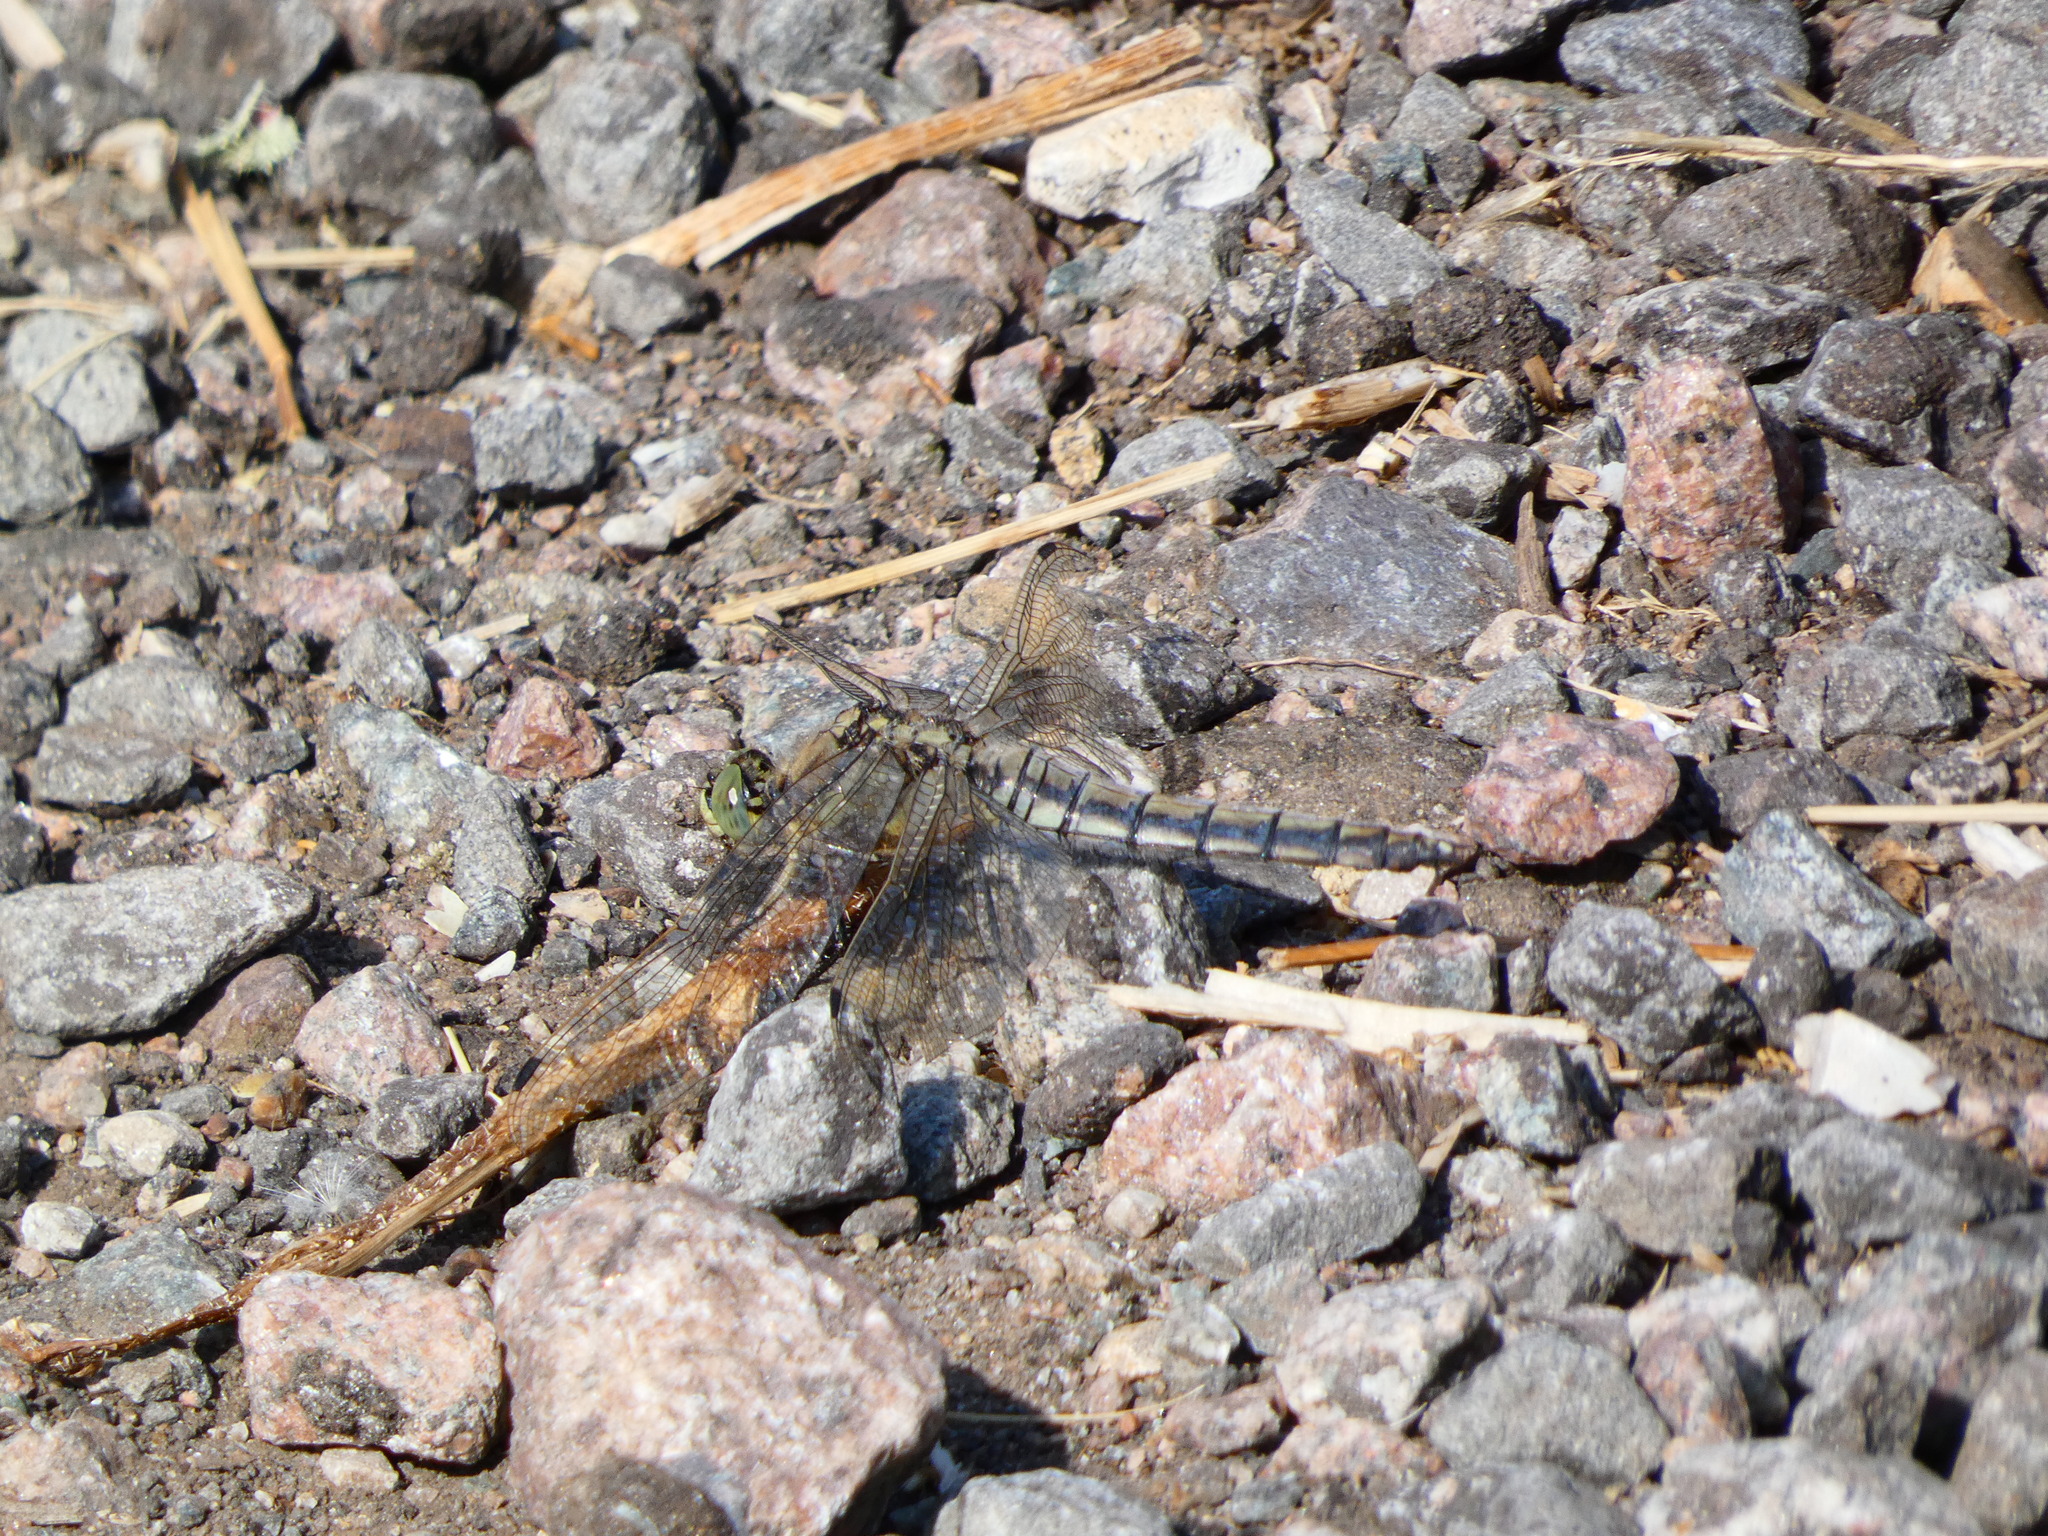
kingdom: Animalia
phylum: Arthropoda
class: Insecta
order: Odonata
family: Libellulidae
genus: Orthetrum
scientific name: Orthetrum cancellatum
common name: Black-tailed skimmer
